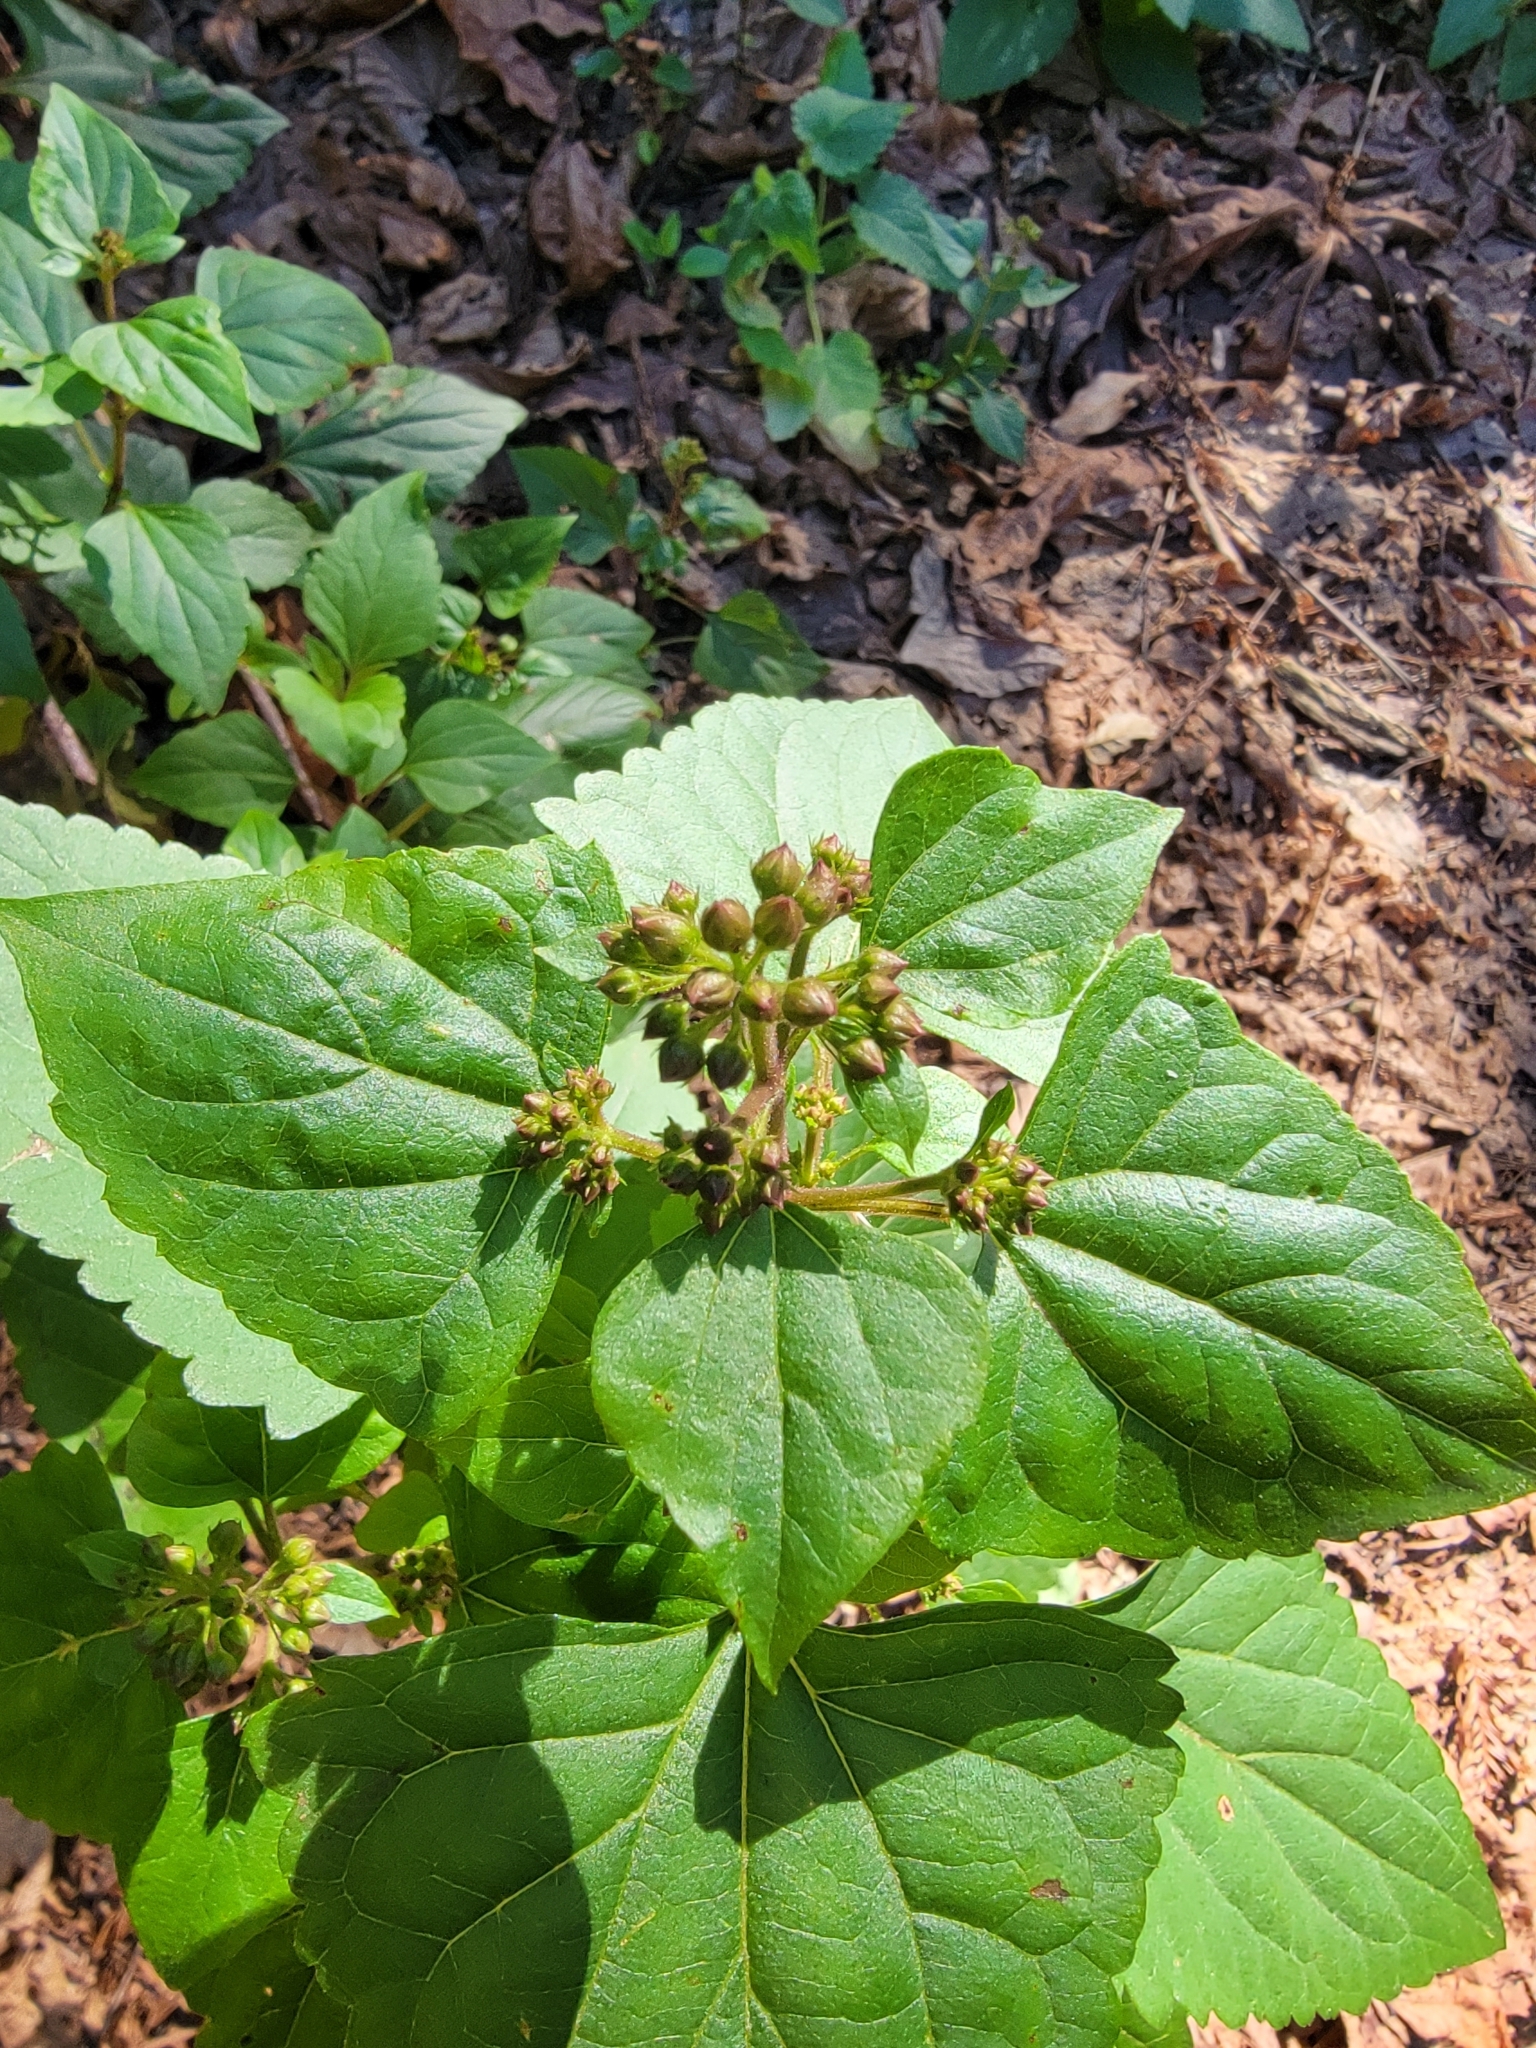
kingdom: Plantae
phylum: Tracheophyta
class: Magnoliopsida
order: Asterales
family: Asteraceae
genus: Ageratina
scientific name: Ageratina adenophora
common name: Sticky snakeroot
